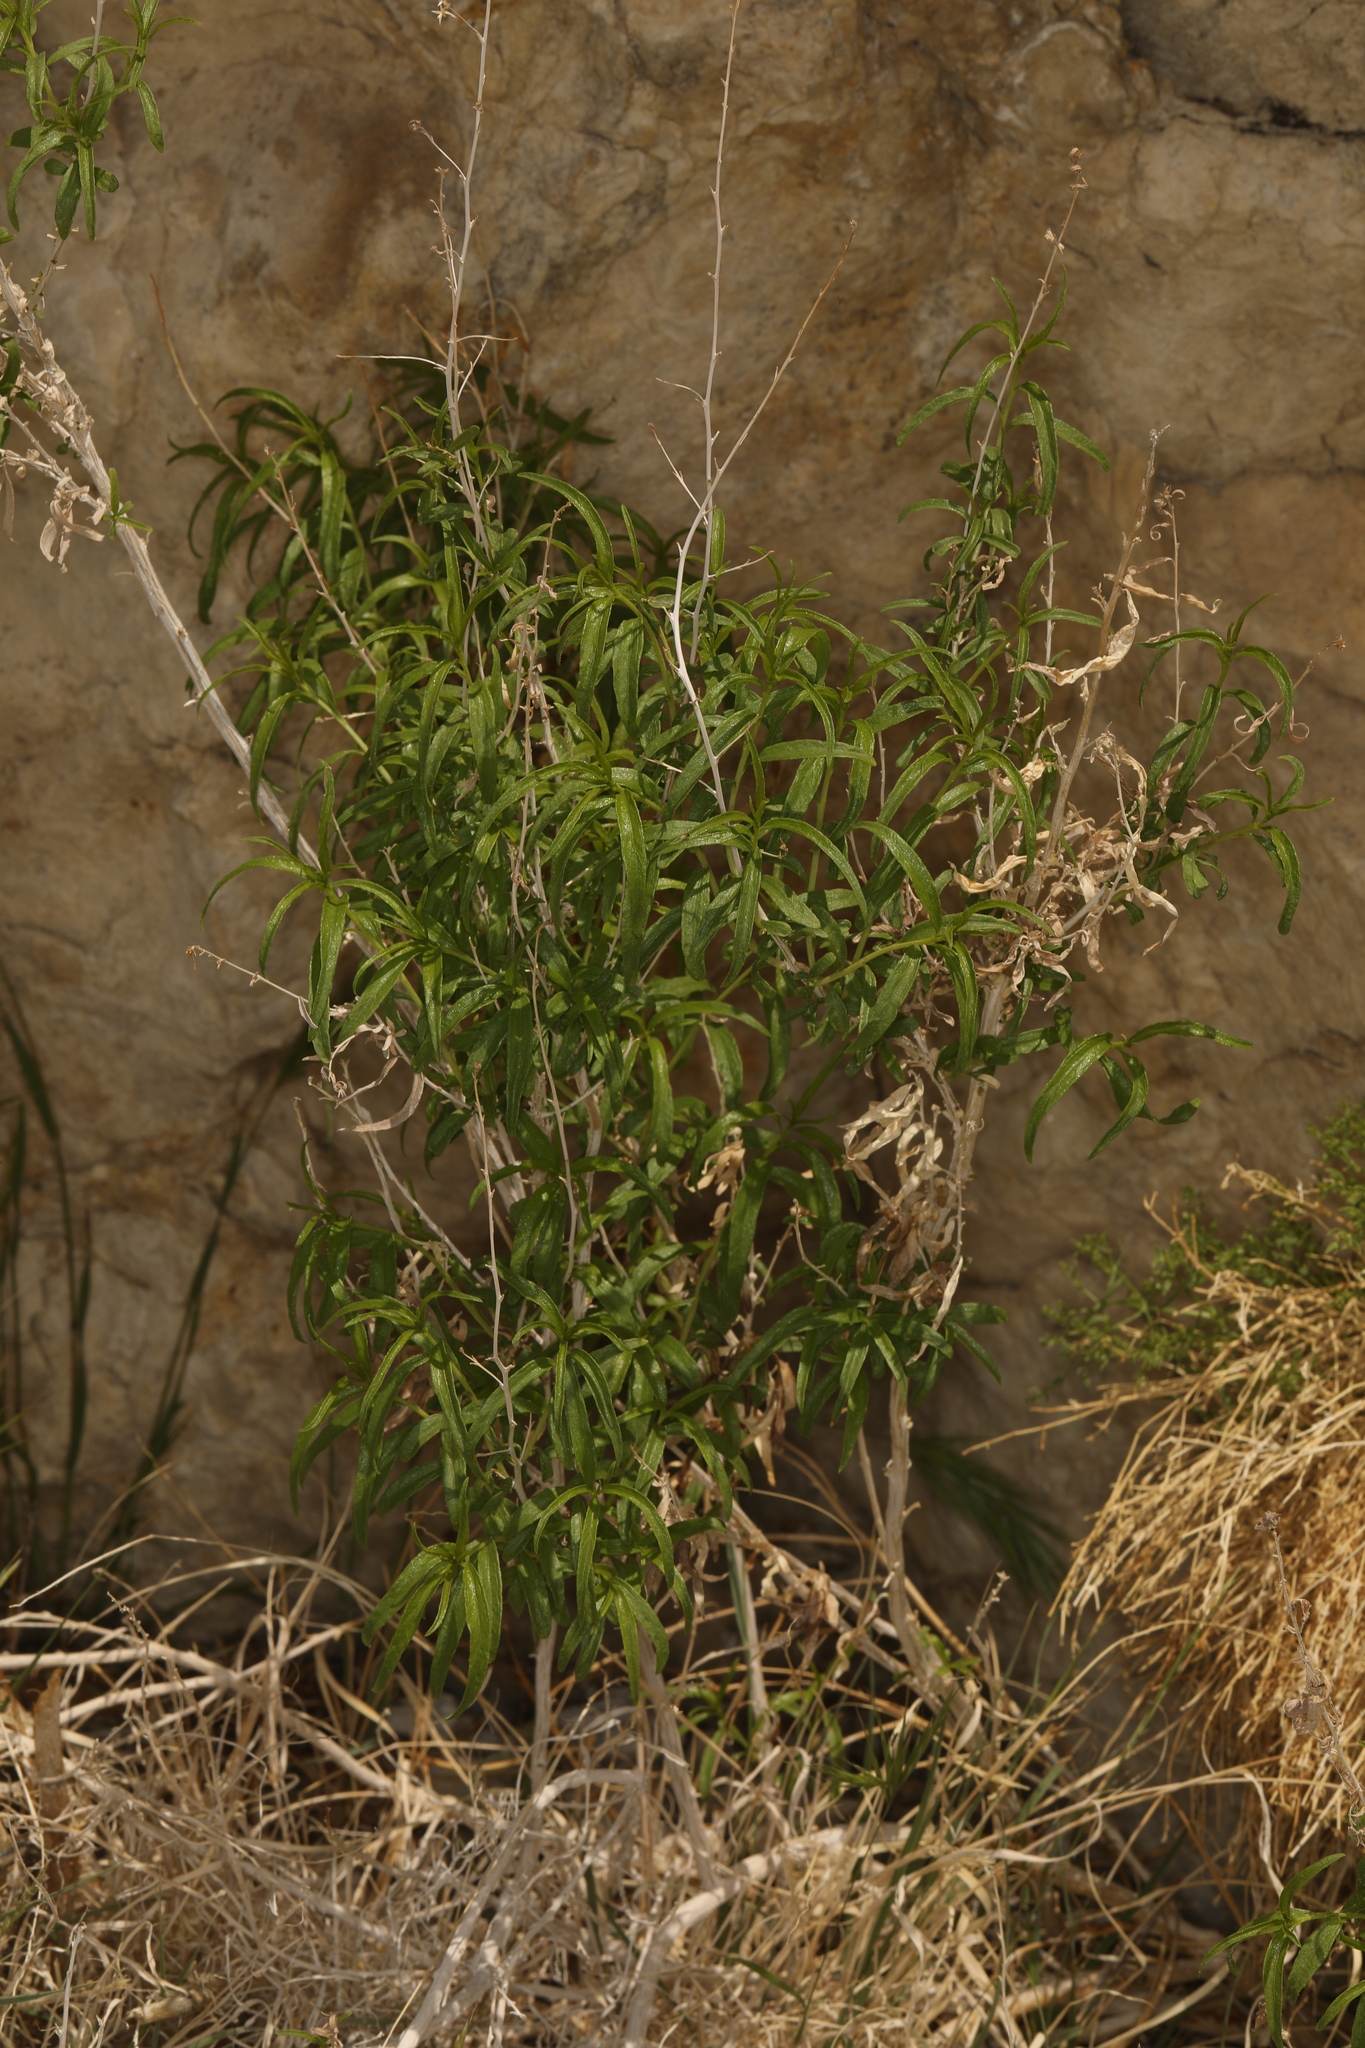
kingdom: Plantae
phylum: Tracheophyta
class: Magnoliopsida
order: Asterales
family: Asteraceae
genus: Brickellia
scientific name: Brickellia longifolia
